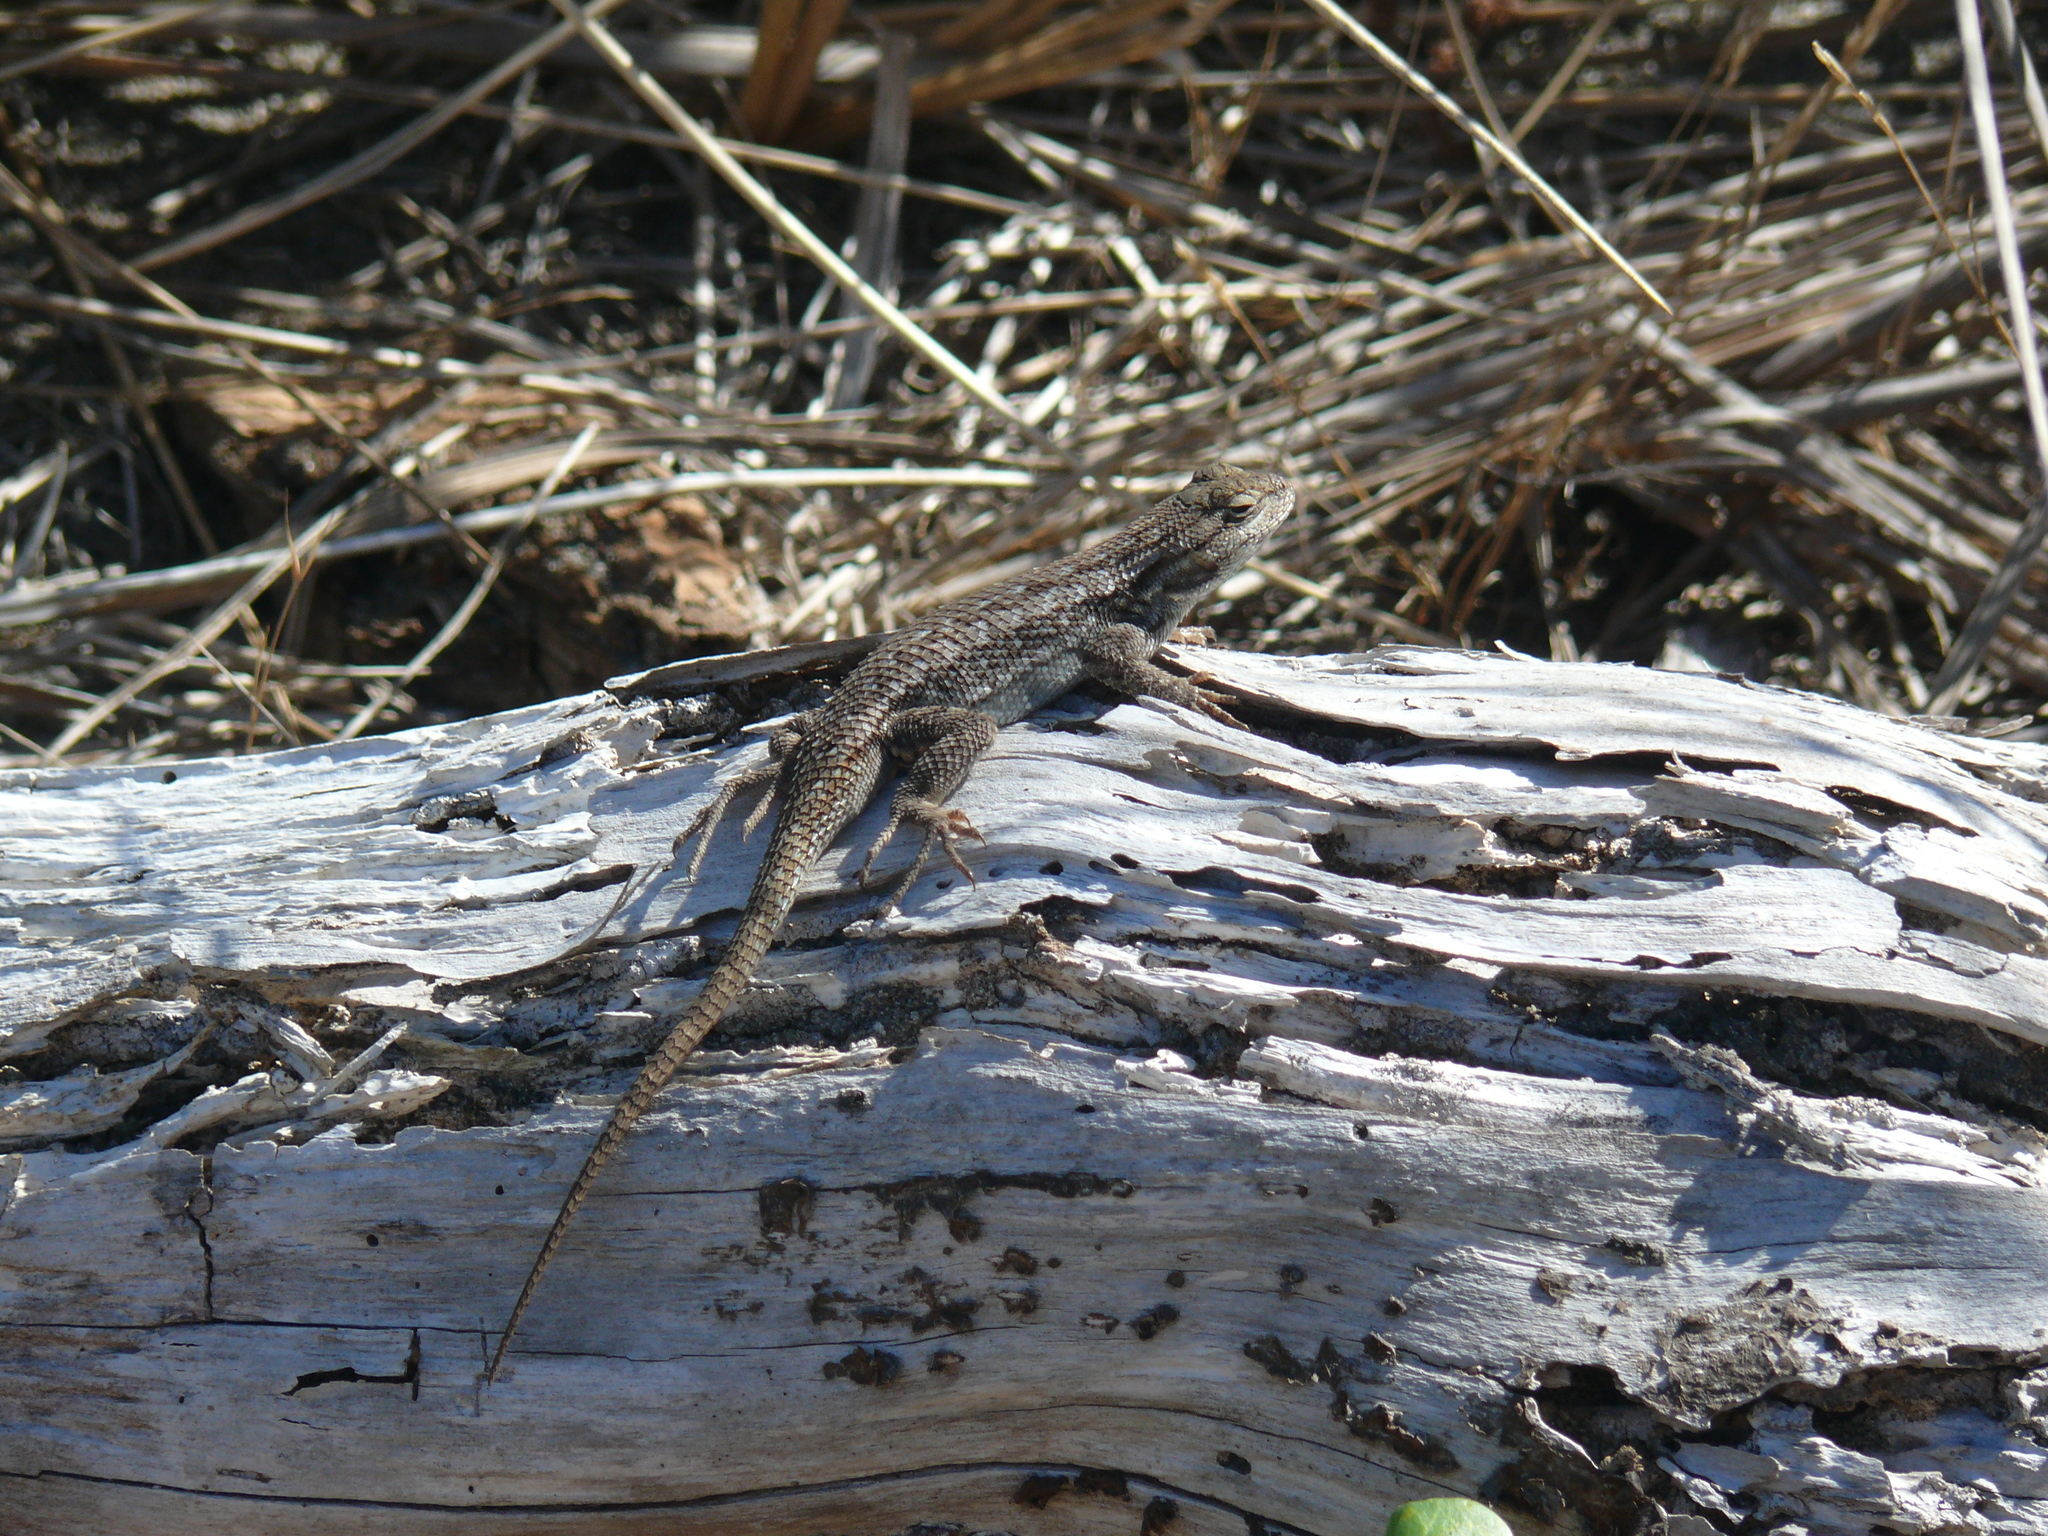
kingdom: Animalia
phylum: Chordata
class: Squamata
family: Phrynosomatidae
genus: Sceloporus
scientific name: Sceloporus occidentalis
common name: Western fence lizard
